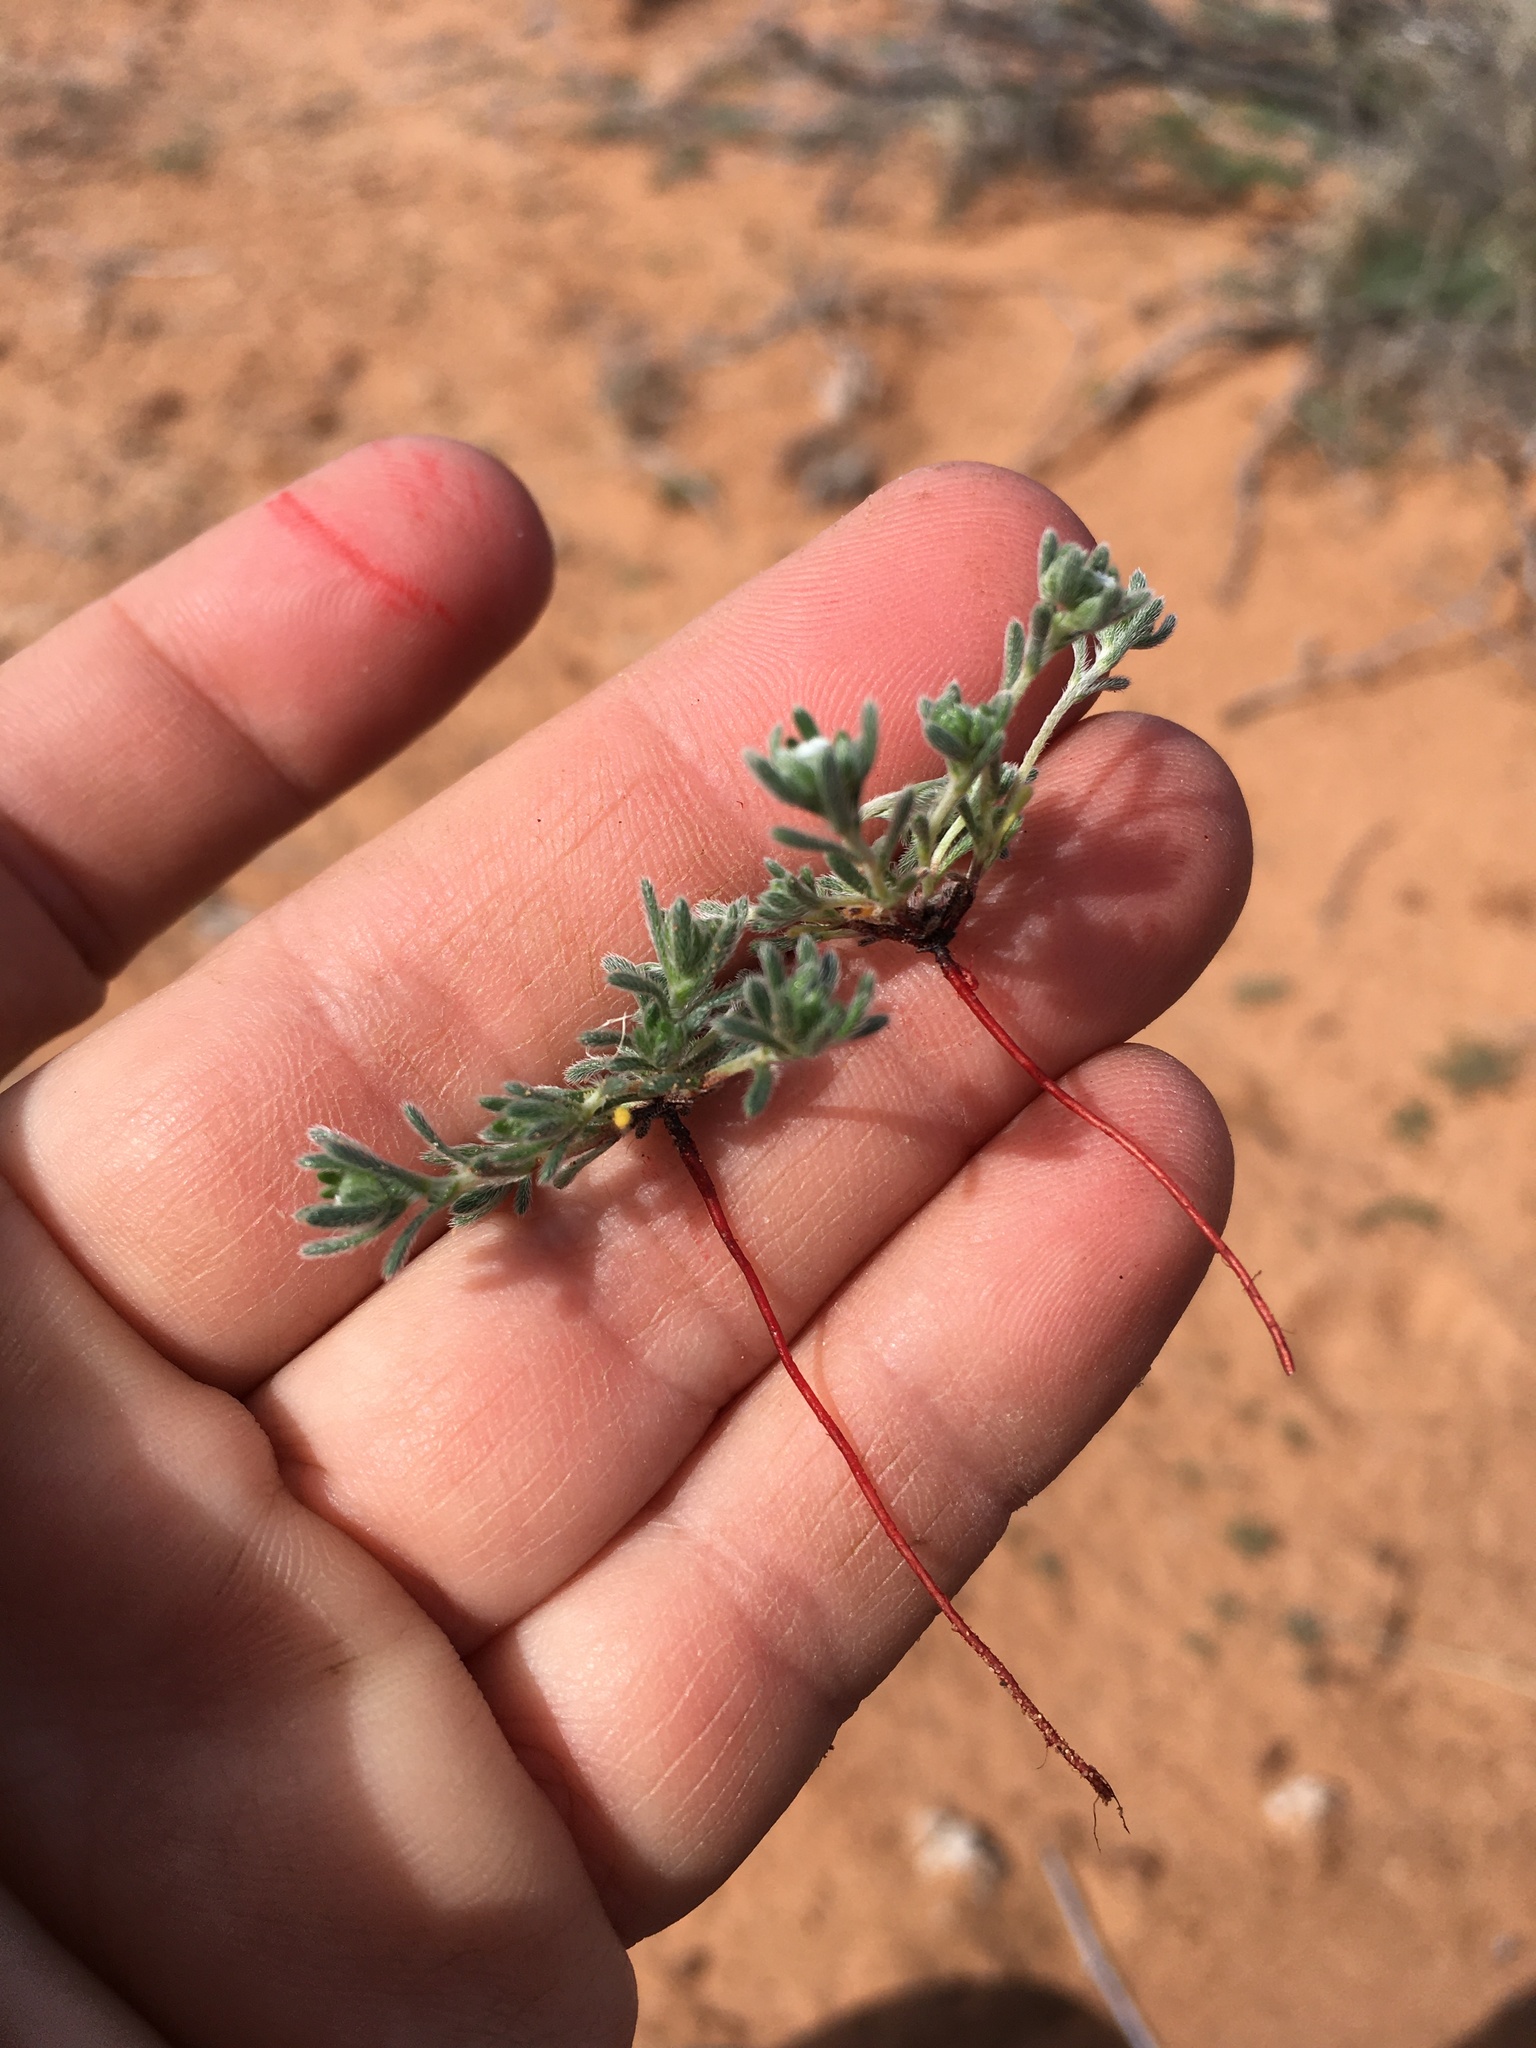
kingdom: Plantae
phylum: Tracheophyta
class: Magnoliopsida
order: Boraginales
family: Boraginaceae
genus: Eremocarya
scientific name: Eremocarya micrantha
